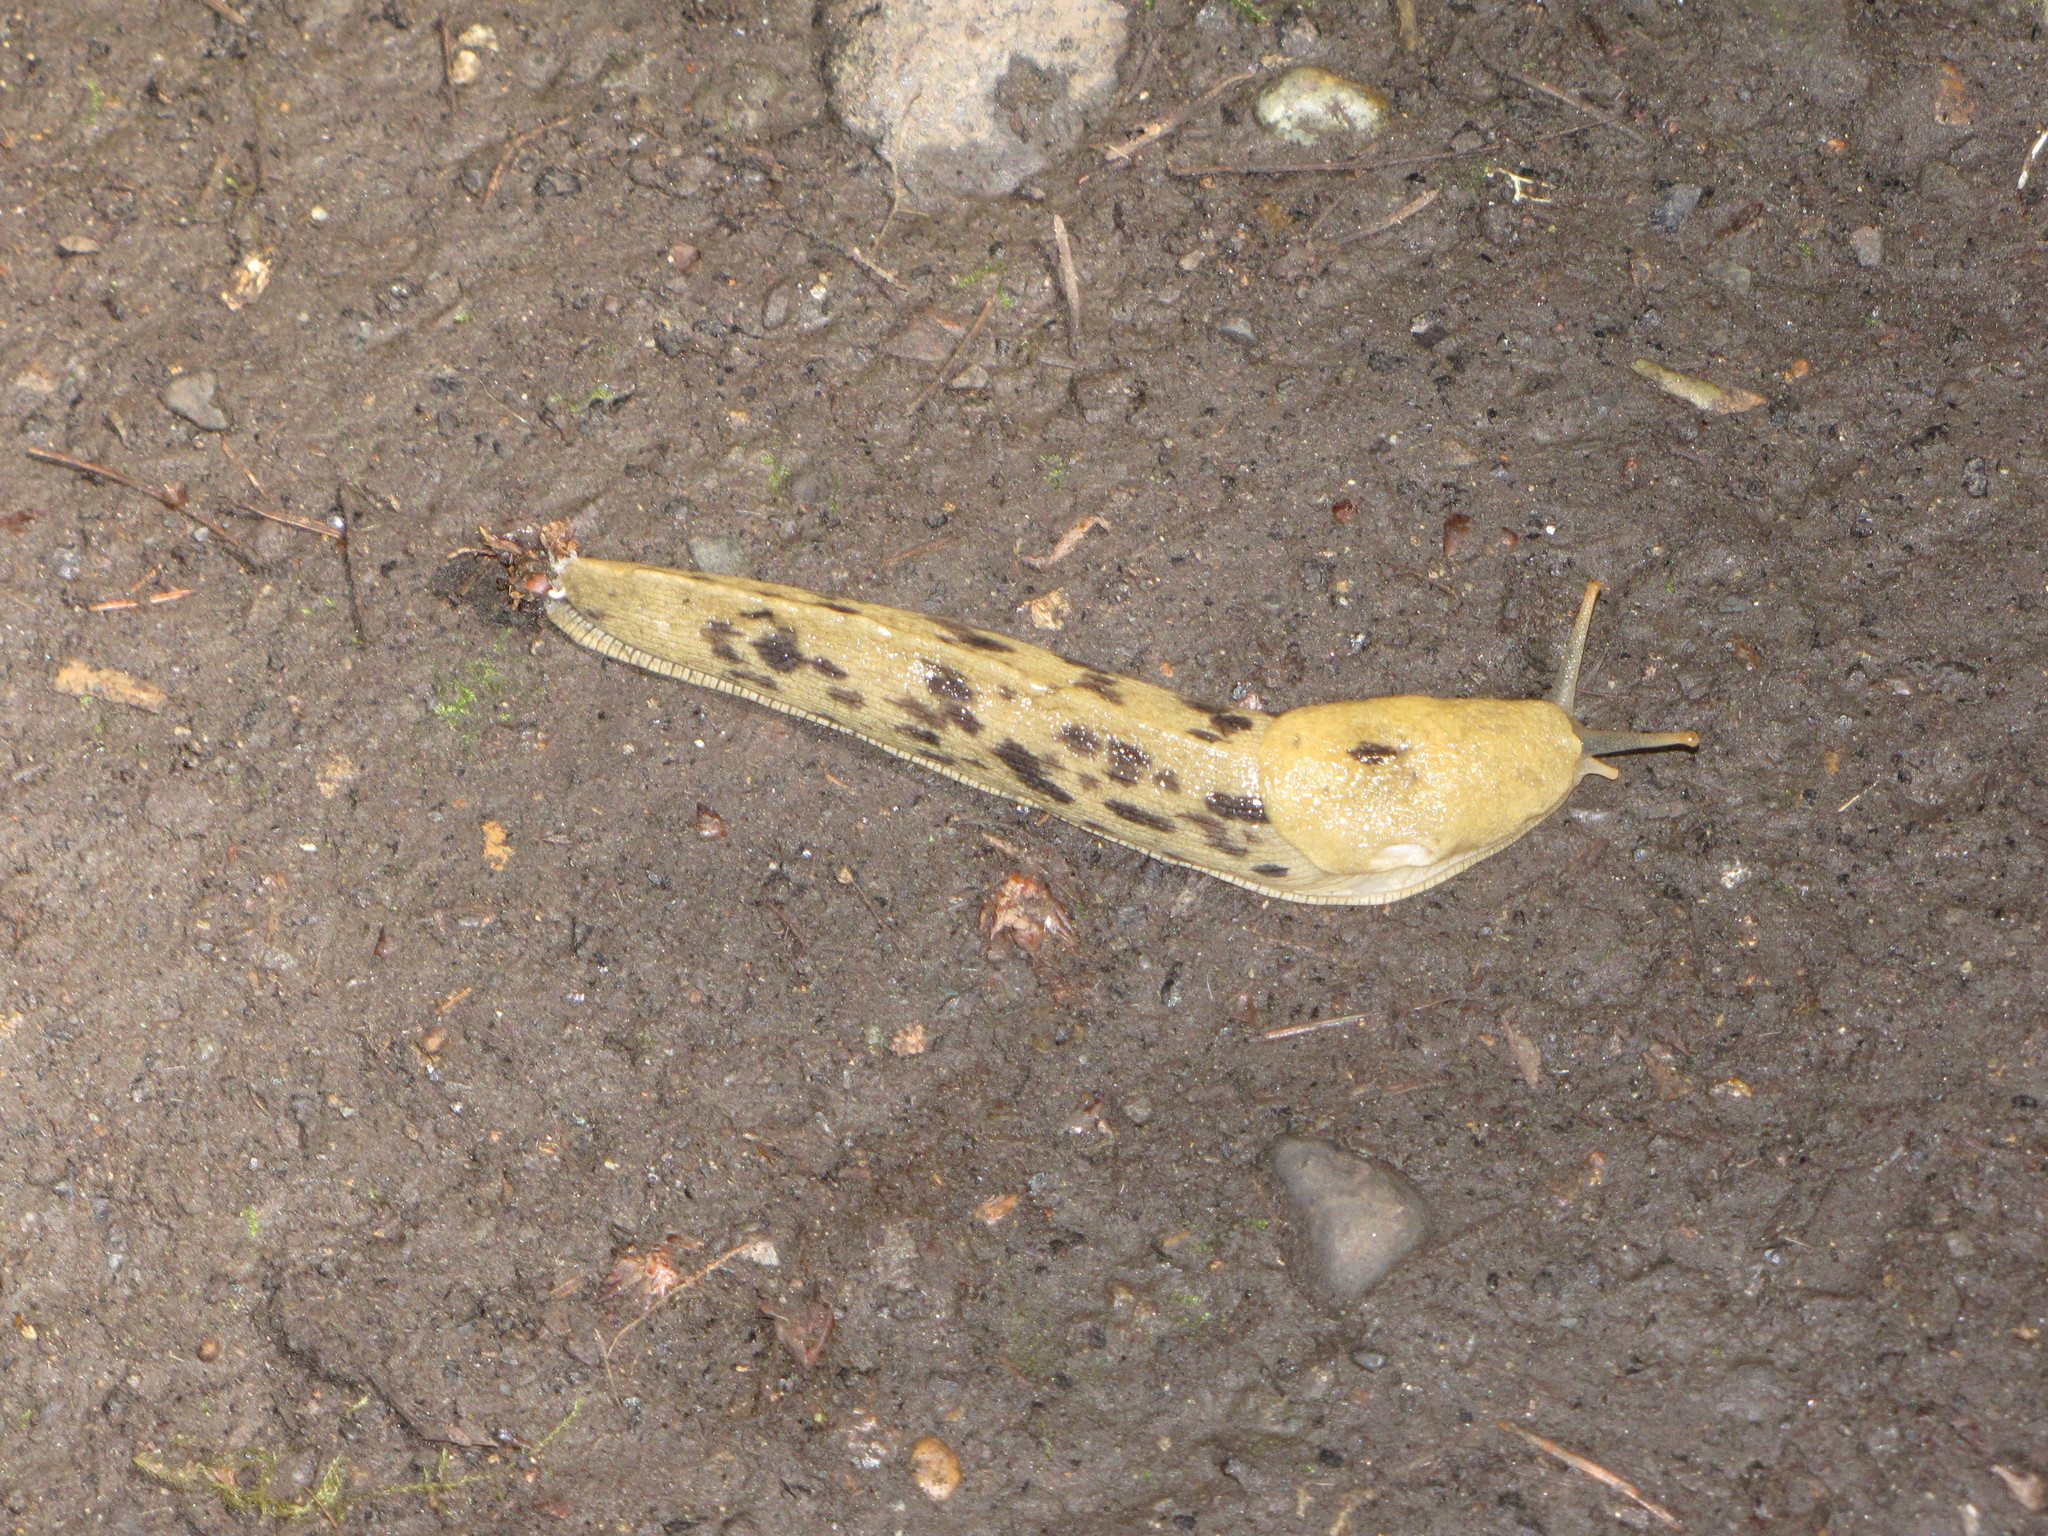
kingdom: Animalia
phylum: Mollusca
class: Gastropoda
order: Stylommatophora
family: Ariolimacidae
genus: Ariolimax
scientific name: Ariolimax columbianus
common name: Pacific banana slug
